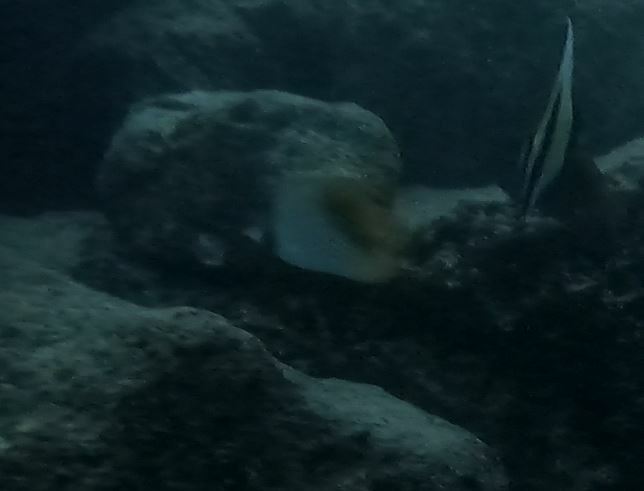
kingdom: Animalia
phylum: Chordata
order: Perciformes
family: Chaetodontidae
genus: Chaetodon
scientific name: Chaetodon auriga
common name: Threadfin butterflyfish
